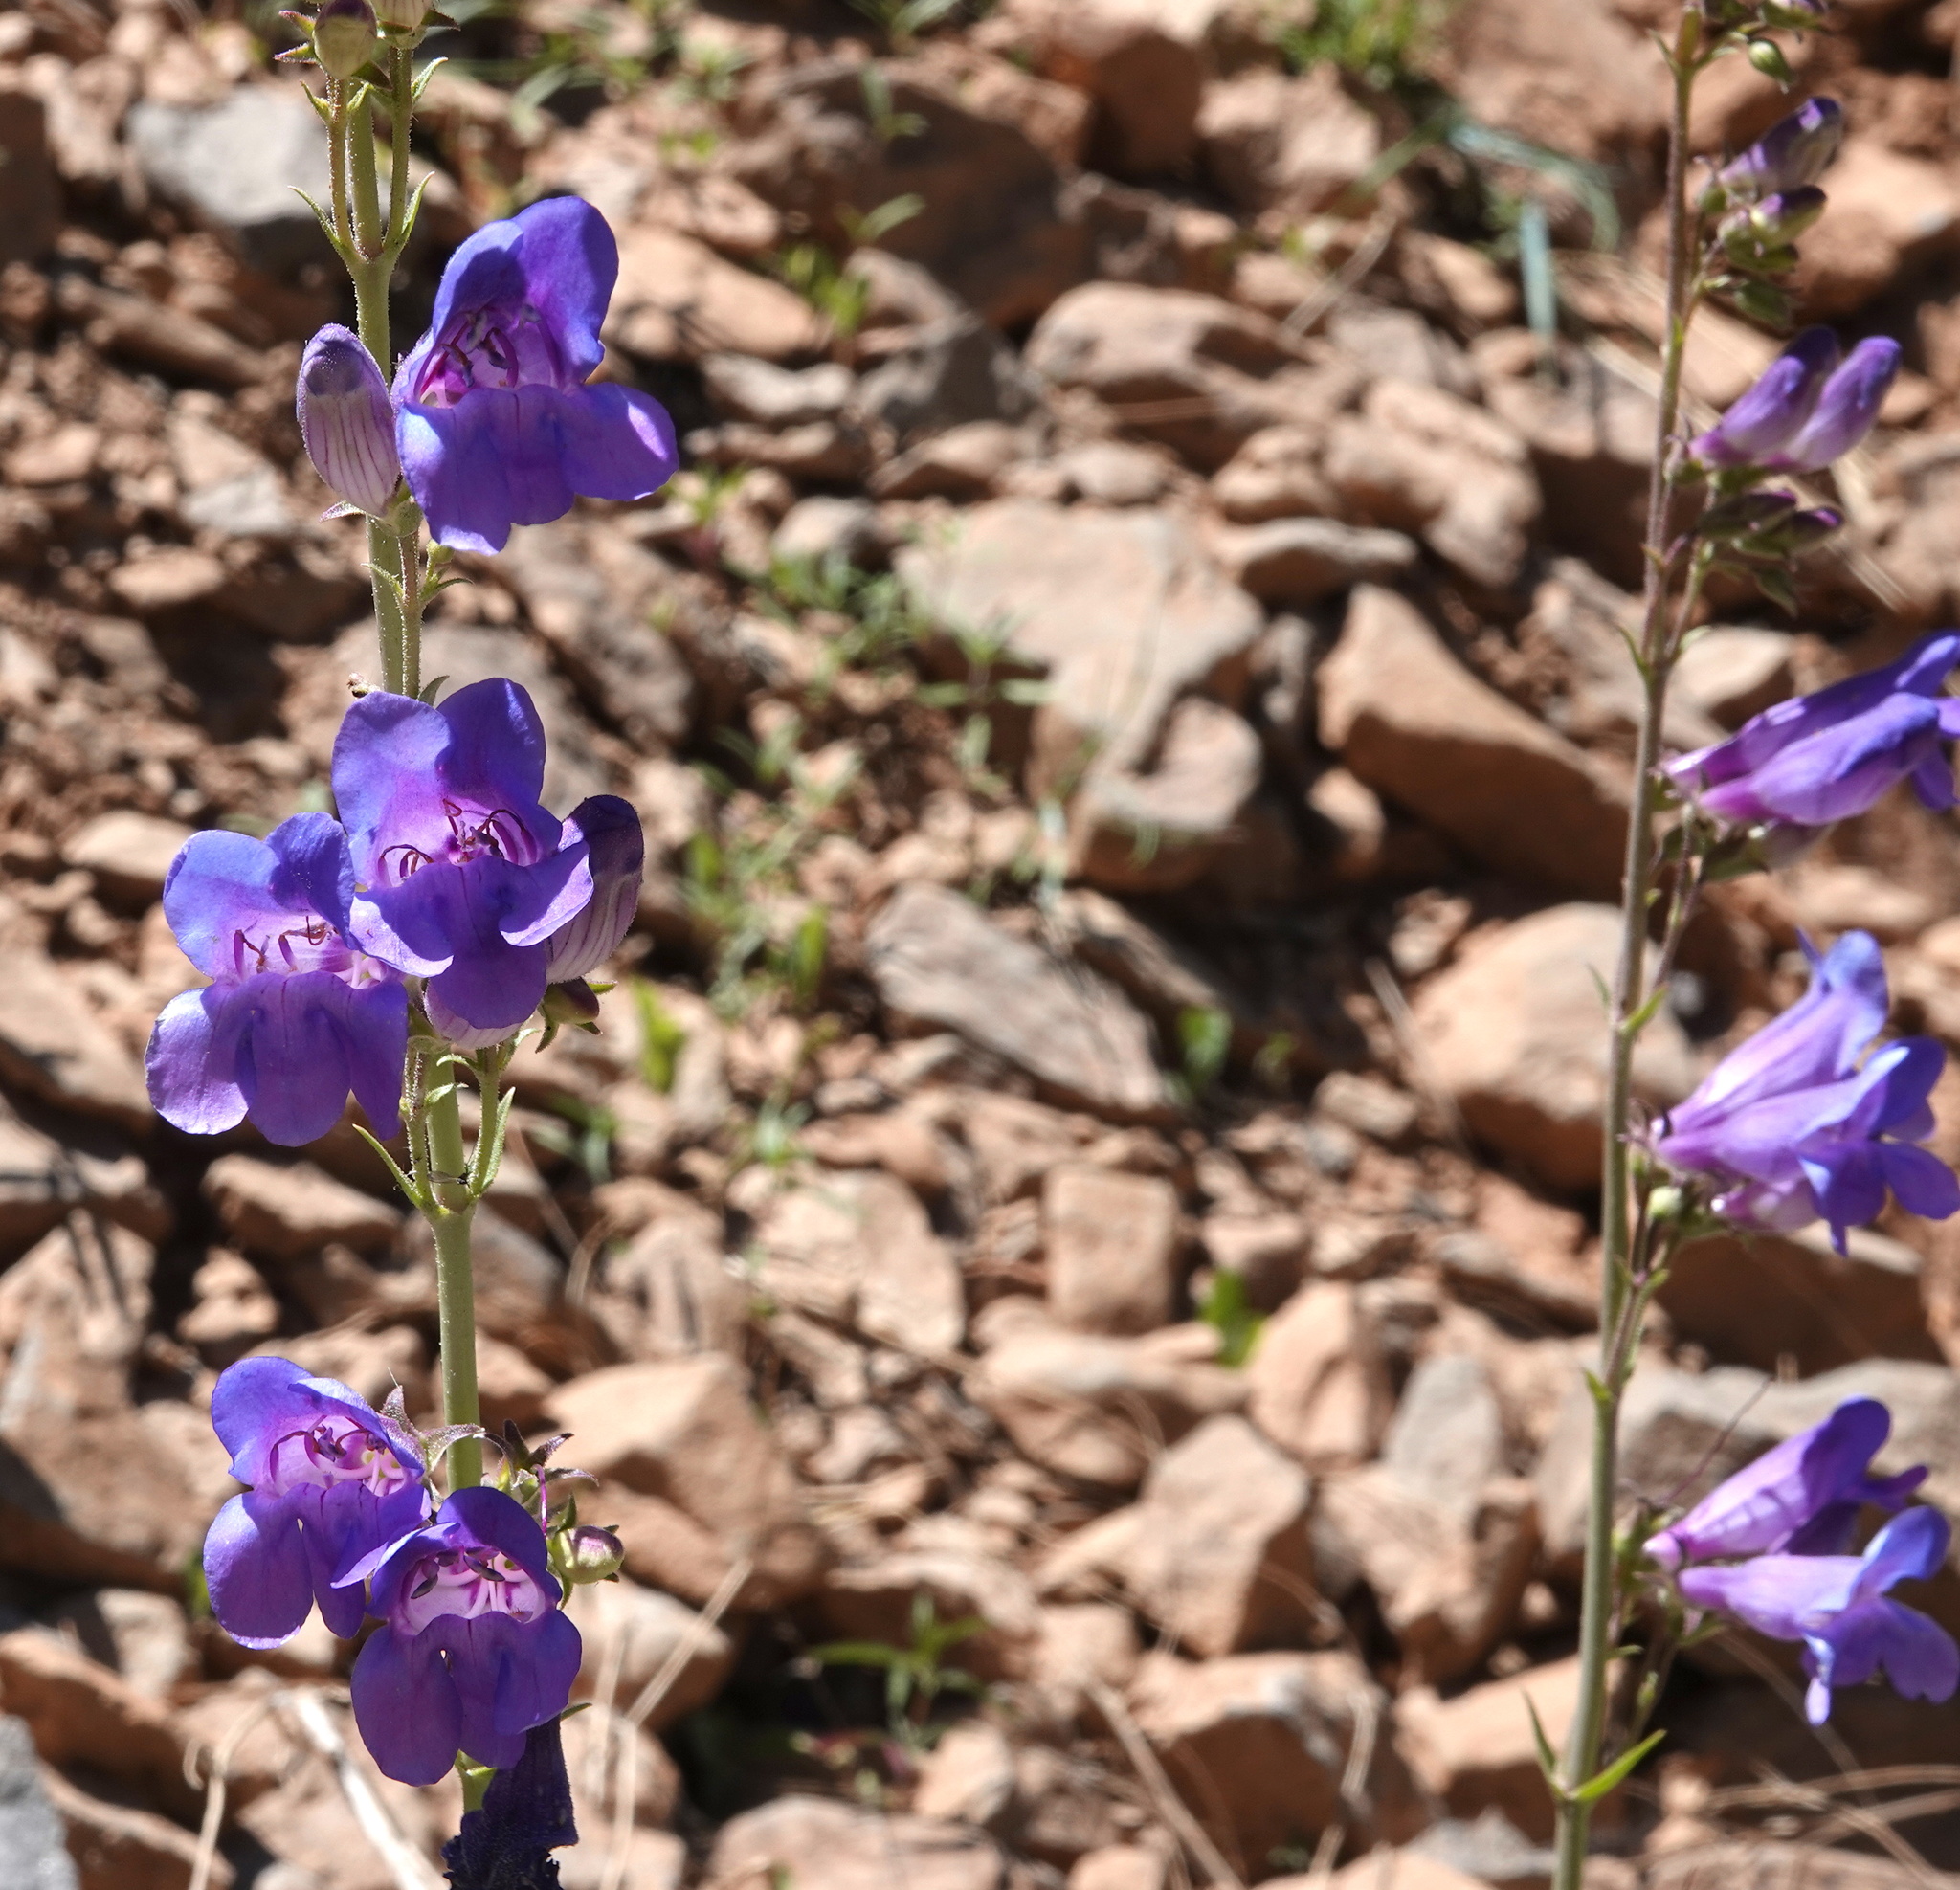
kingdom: Plantae
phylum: Tracheophyta
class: Magnoliopsida
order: Lamiales
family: Plantaginaceae
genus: Penstemon
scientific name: Penstemon leiophyllus
